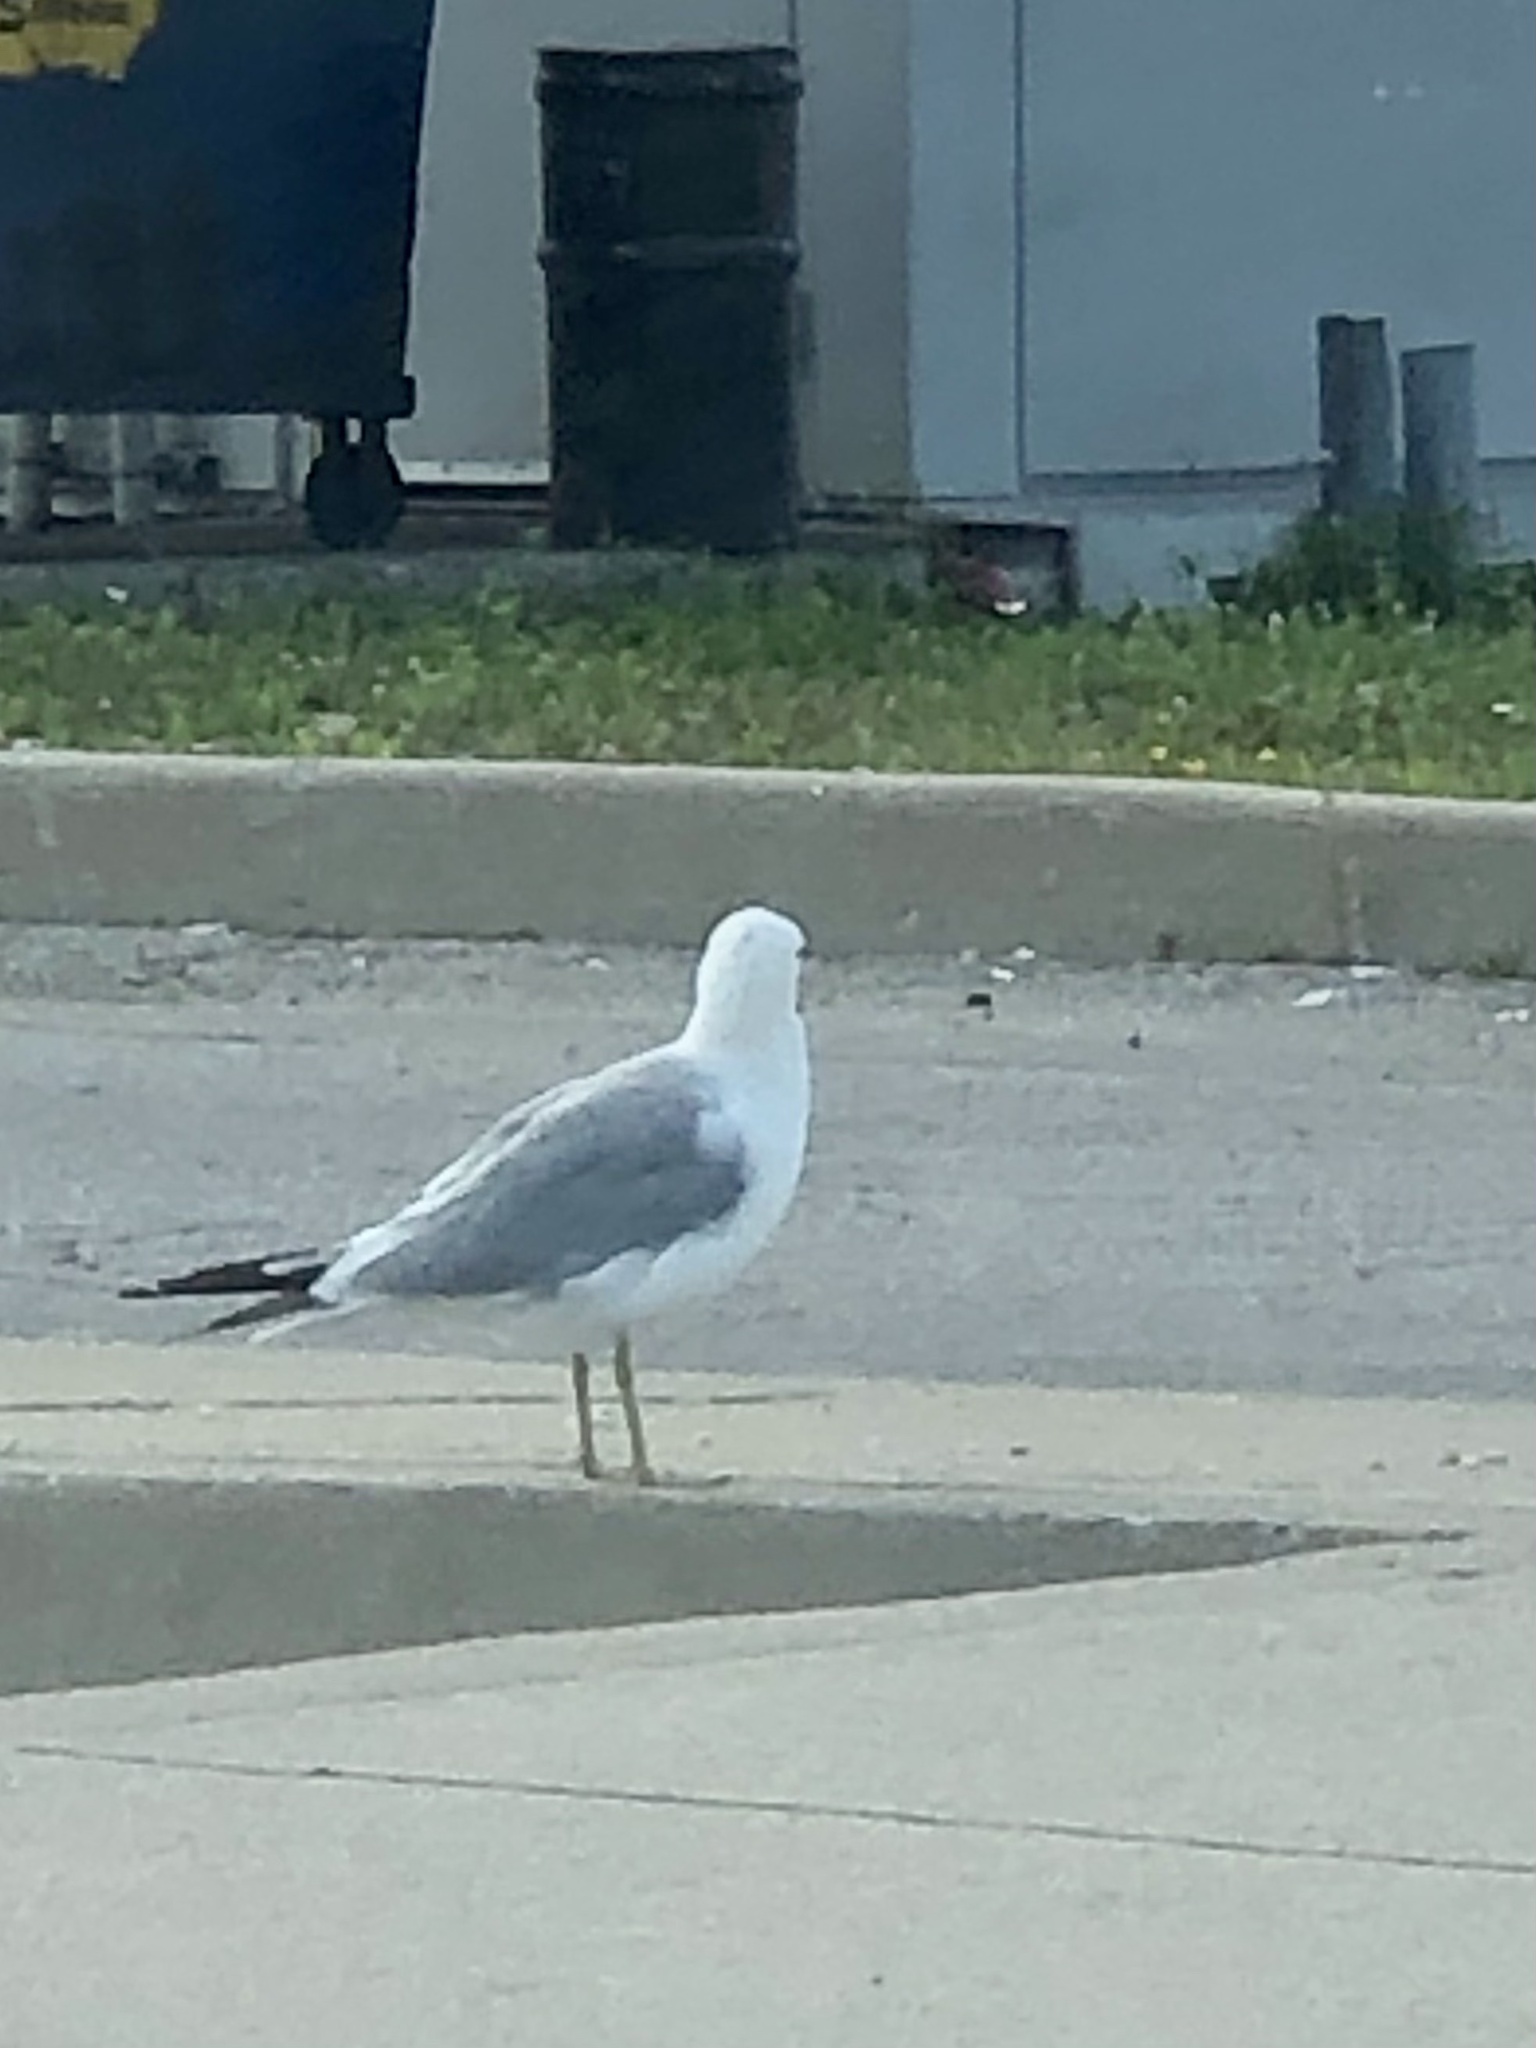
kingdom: Animalia
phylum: Chordata
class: Aves
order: Charadriiformes
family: Laridae
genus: Larus
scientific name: Larus delawarensis
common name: Ring-billed gull
